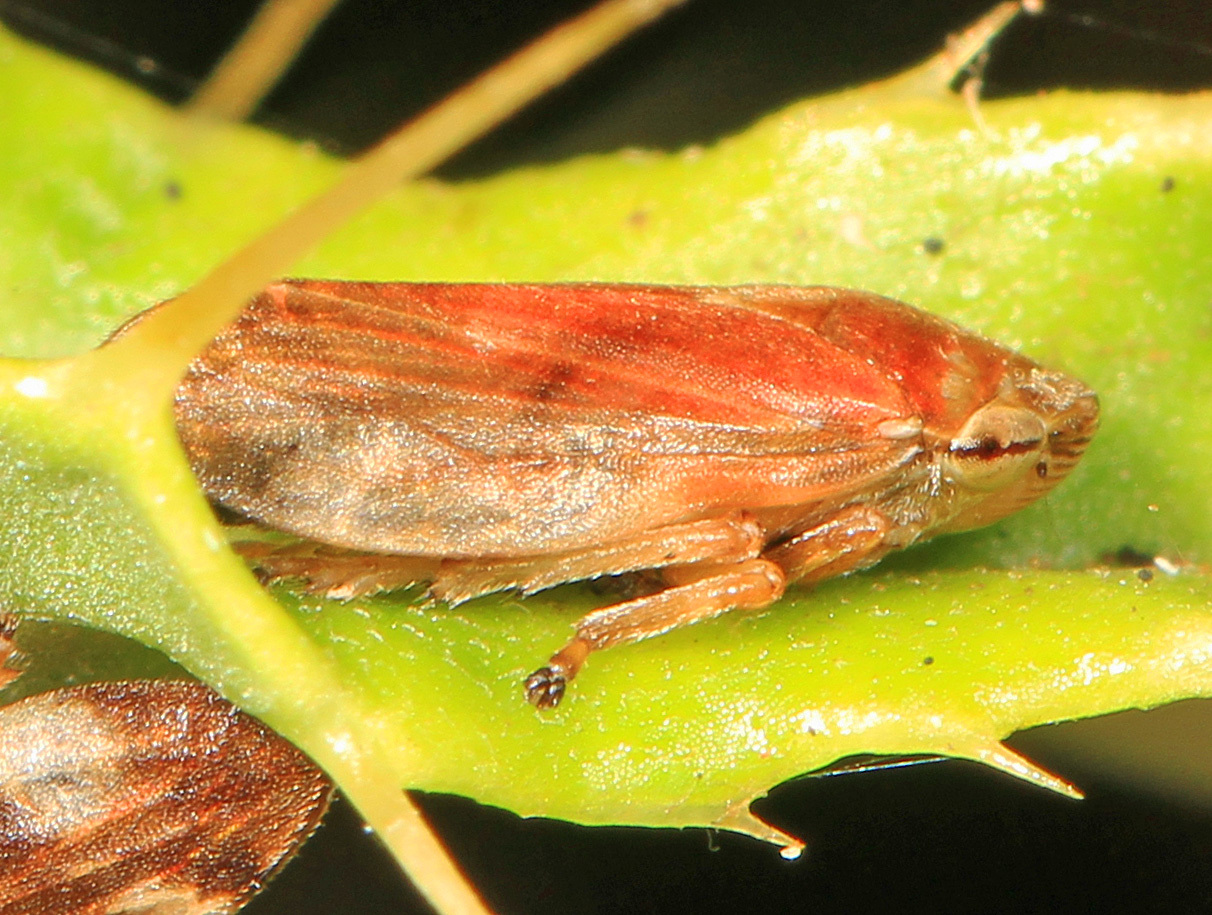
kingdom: Animalia
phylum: Arthropoda
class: Insecta
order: Hemiptera
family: Aphrophoridae
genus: Philaenus
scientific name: Philaenus spumarius
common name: Meadow spittlebug
